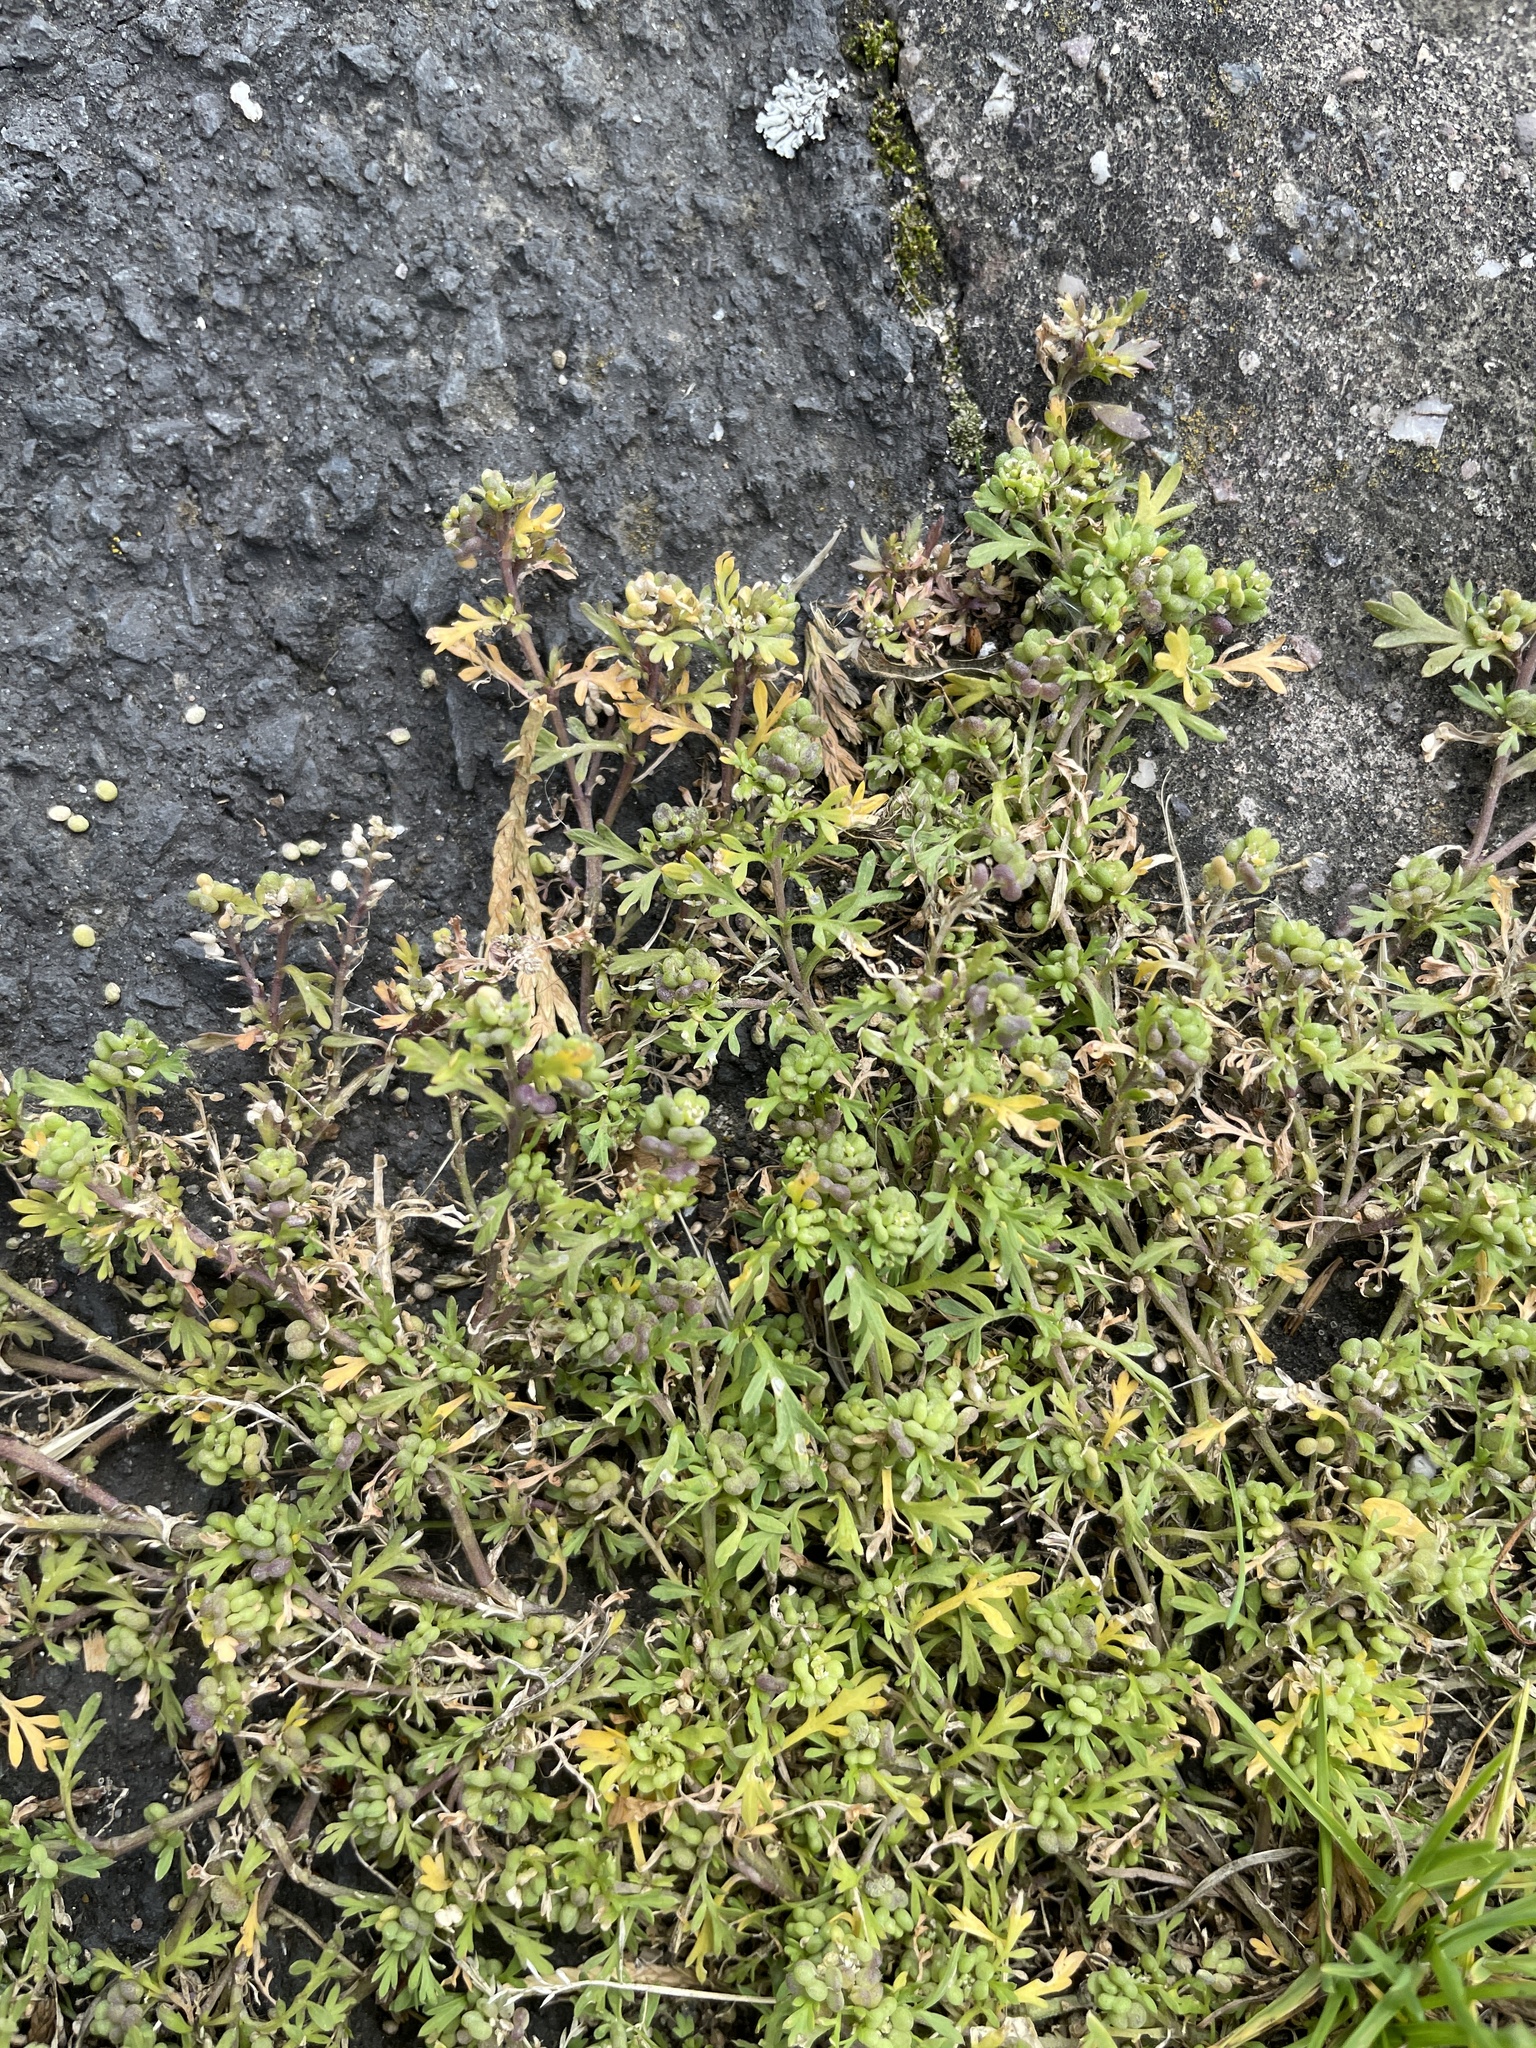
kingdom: Plantae
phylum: Tracheophyta
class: Magnoliopsida
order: Brassicales
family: Brassicaceae
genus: Lepidium
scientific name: Lepidium didymum
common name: Lesser swinecress
